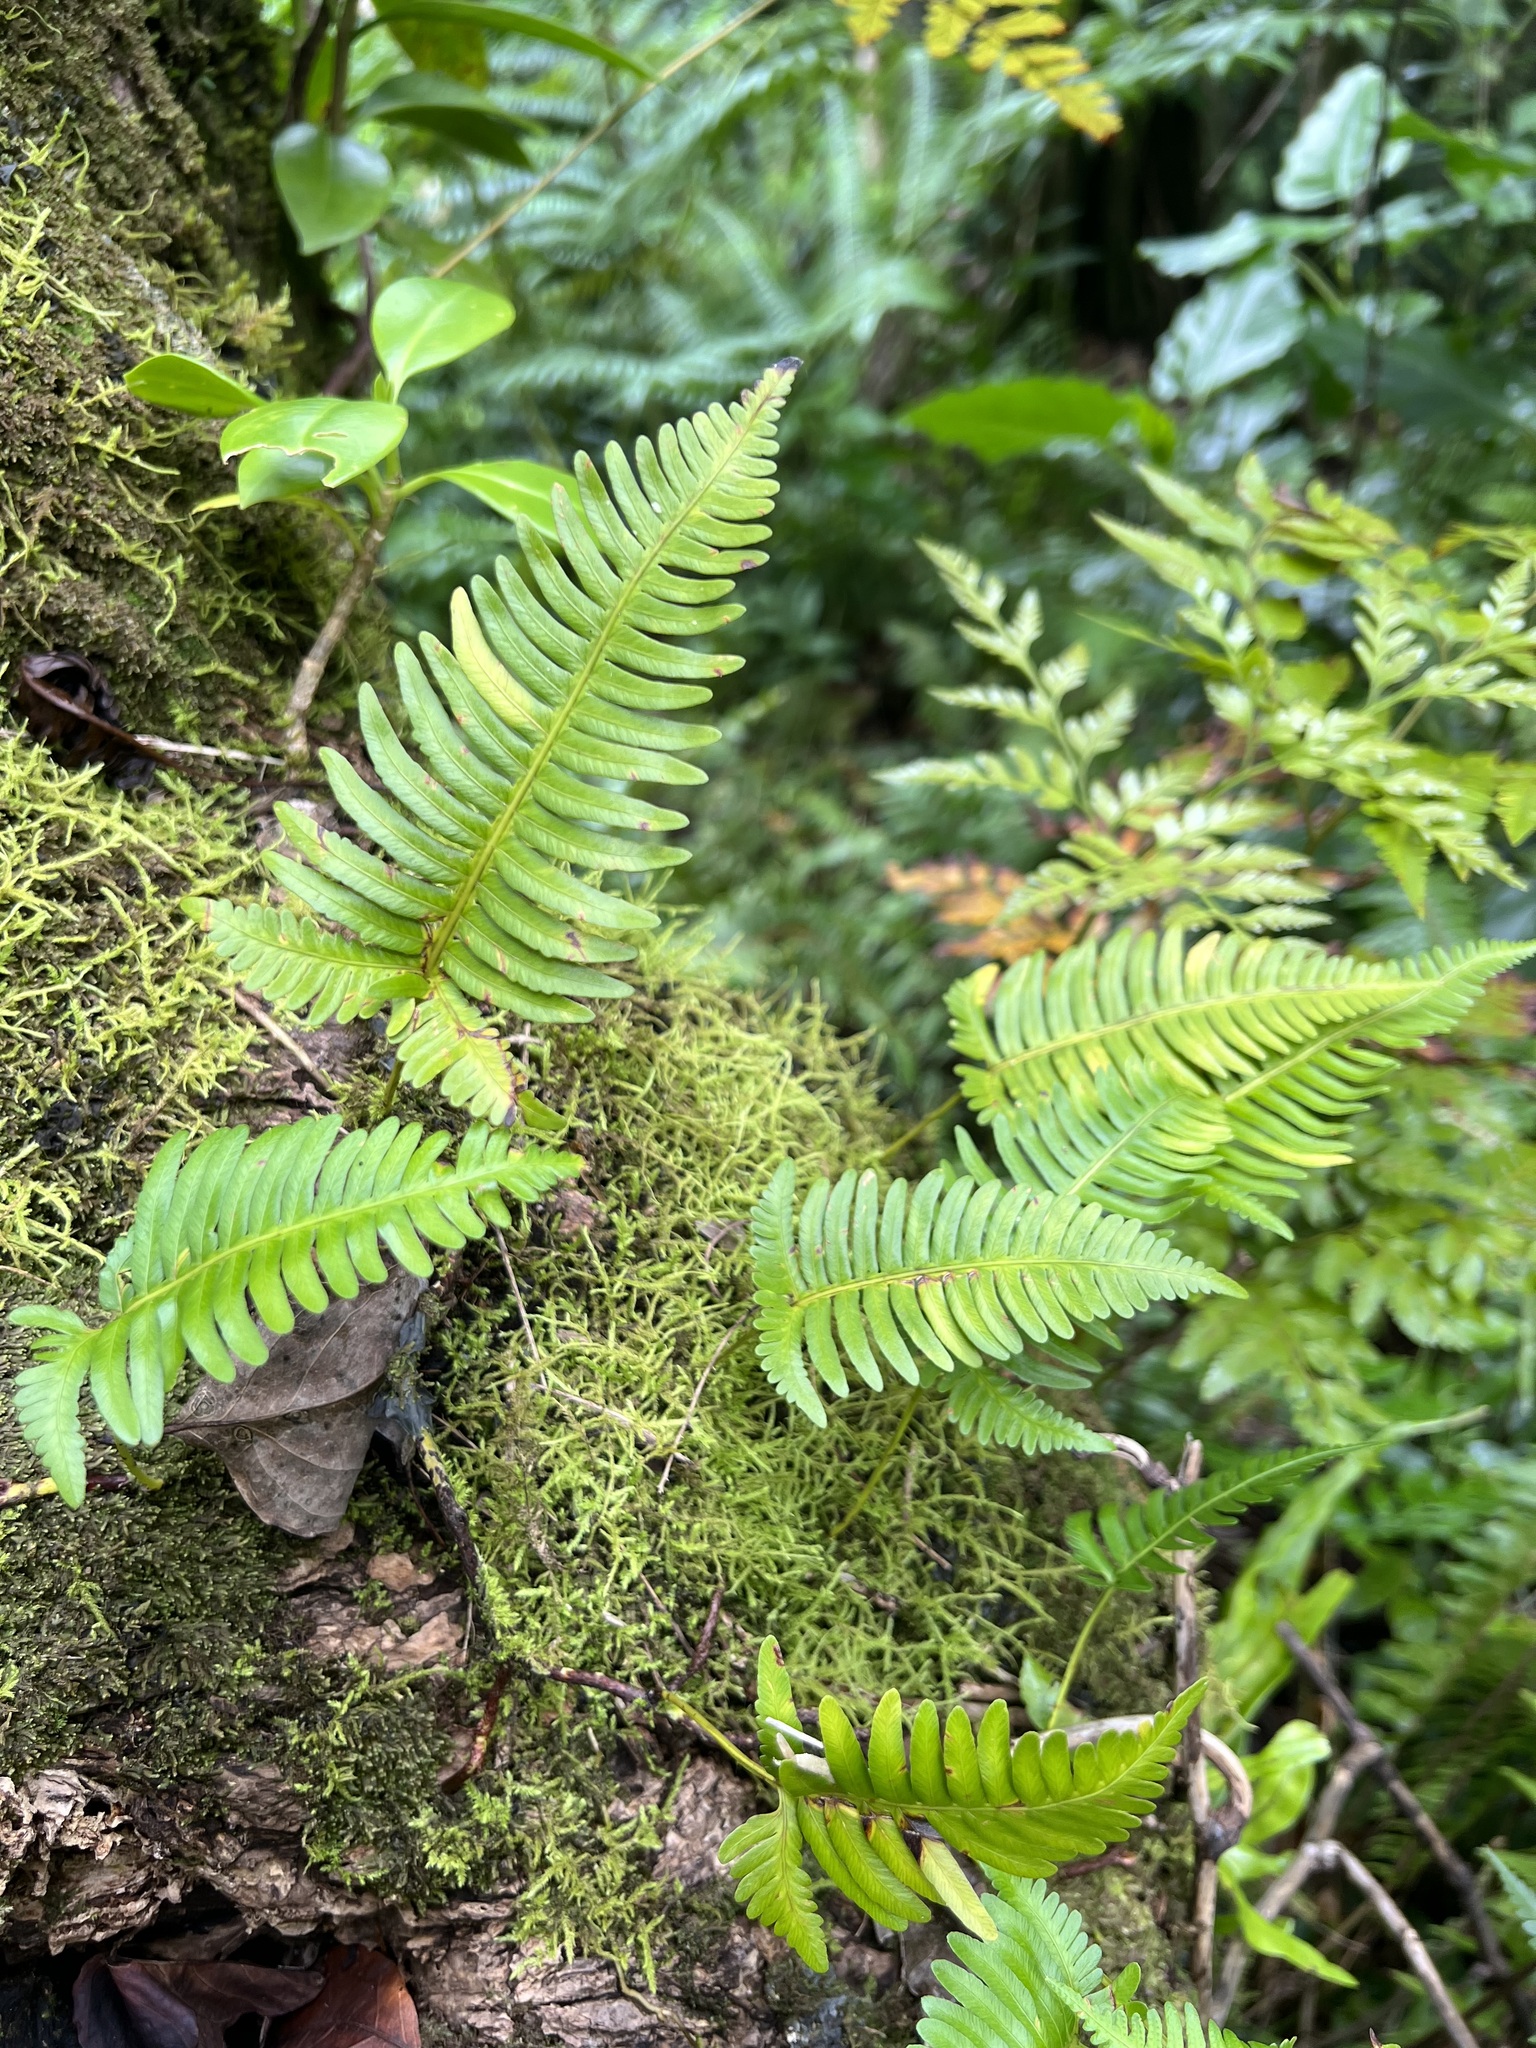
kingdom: Plantae
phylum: Tracheophyta
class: Polypodiopsida
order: Polypodiales
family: Davalliaceae
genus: Davallia
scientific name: Davallia pectinata
